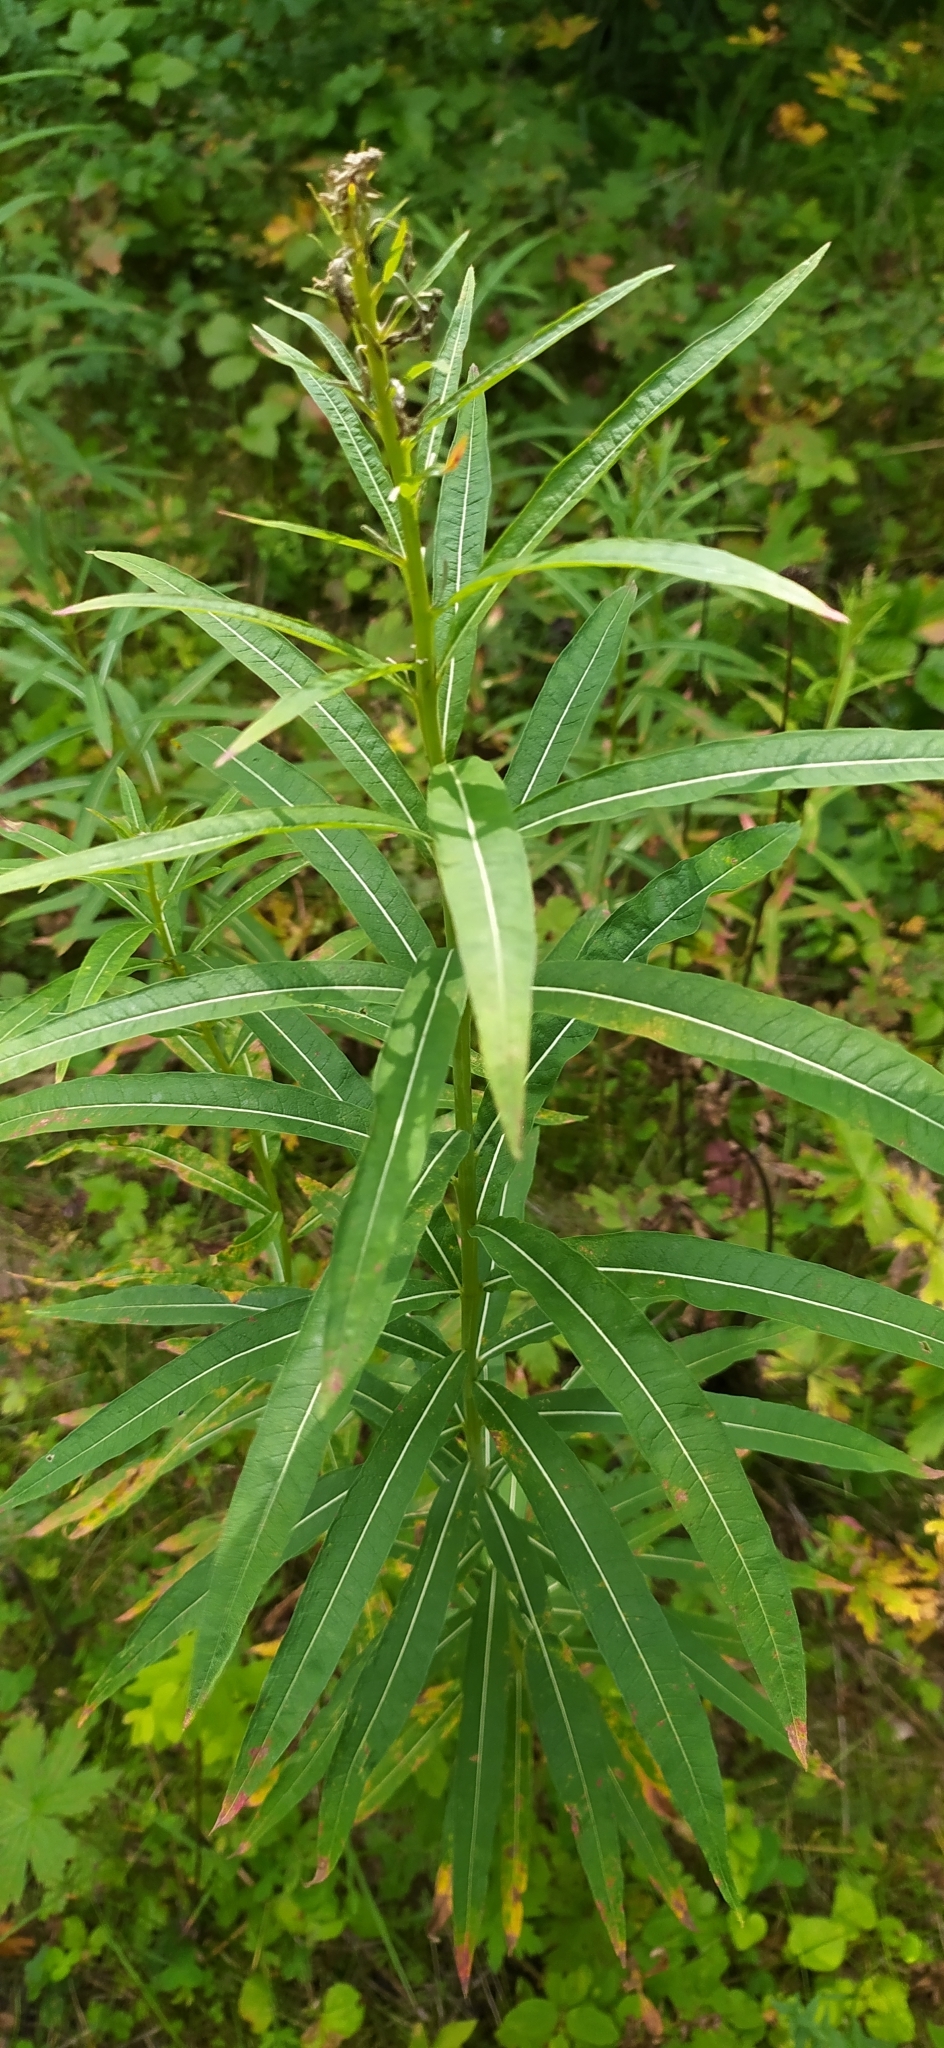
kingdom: Plantae
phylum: Tracheophyta
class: Magnoliopsida
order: Myrtales
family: Onagraceae
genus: Chamaenerion
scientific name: Chamaenerion angustifolium
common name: Fireweed
